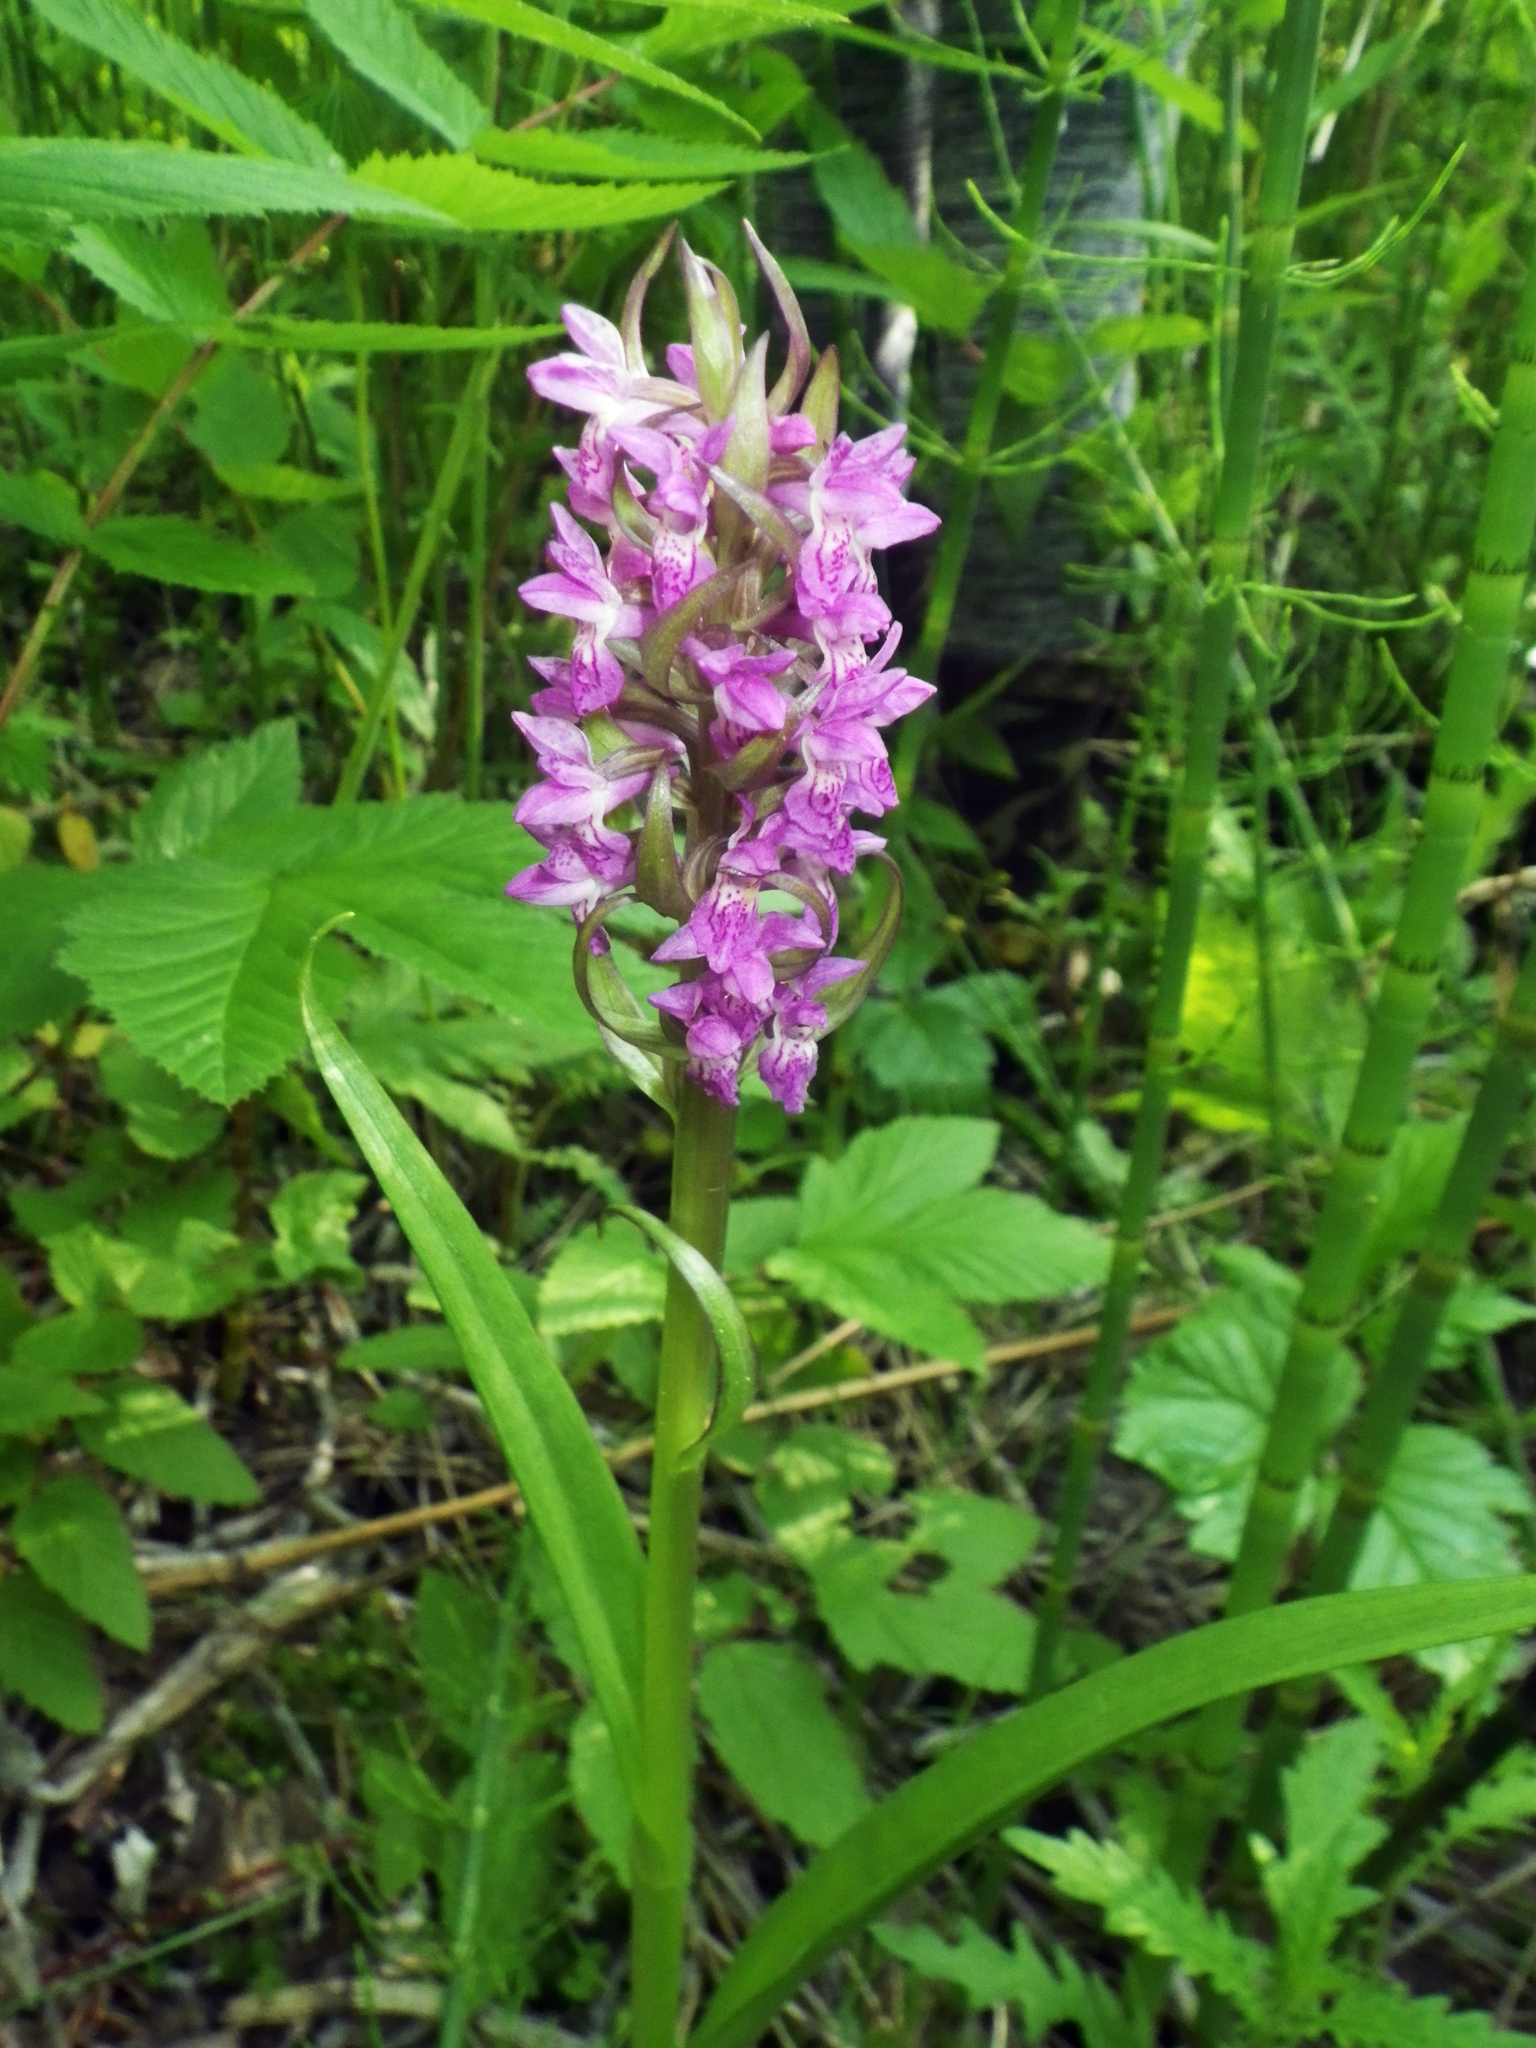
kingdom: Plantae
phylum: Tracheophyta
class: Liliopsida
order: Asparagales
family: Orchidaceae
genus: Dactylorhiza
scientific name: Dactylorhiza incarnata
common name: Early marsh-orchid
